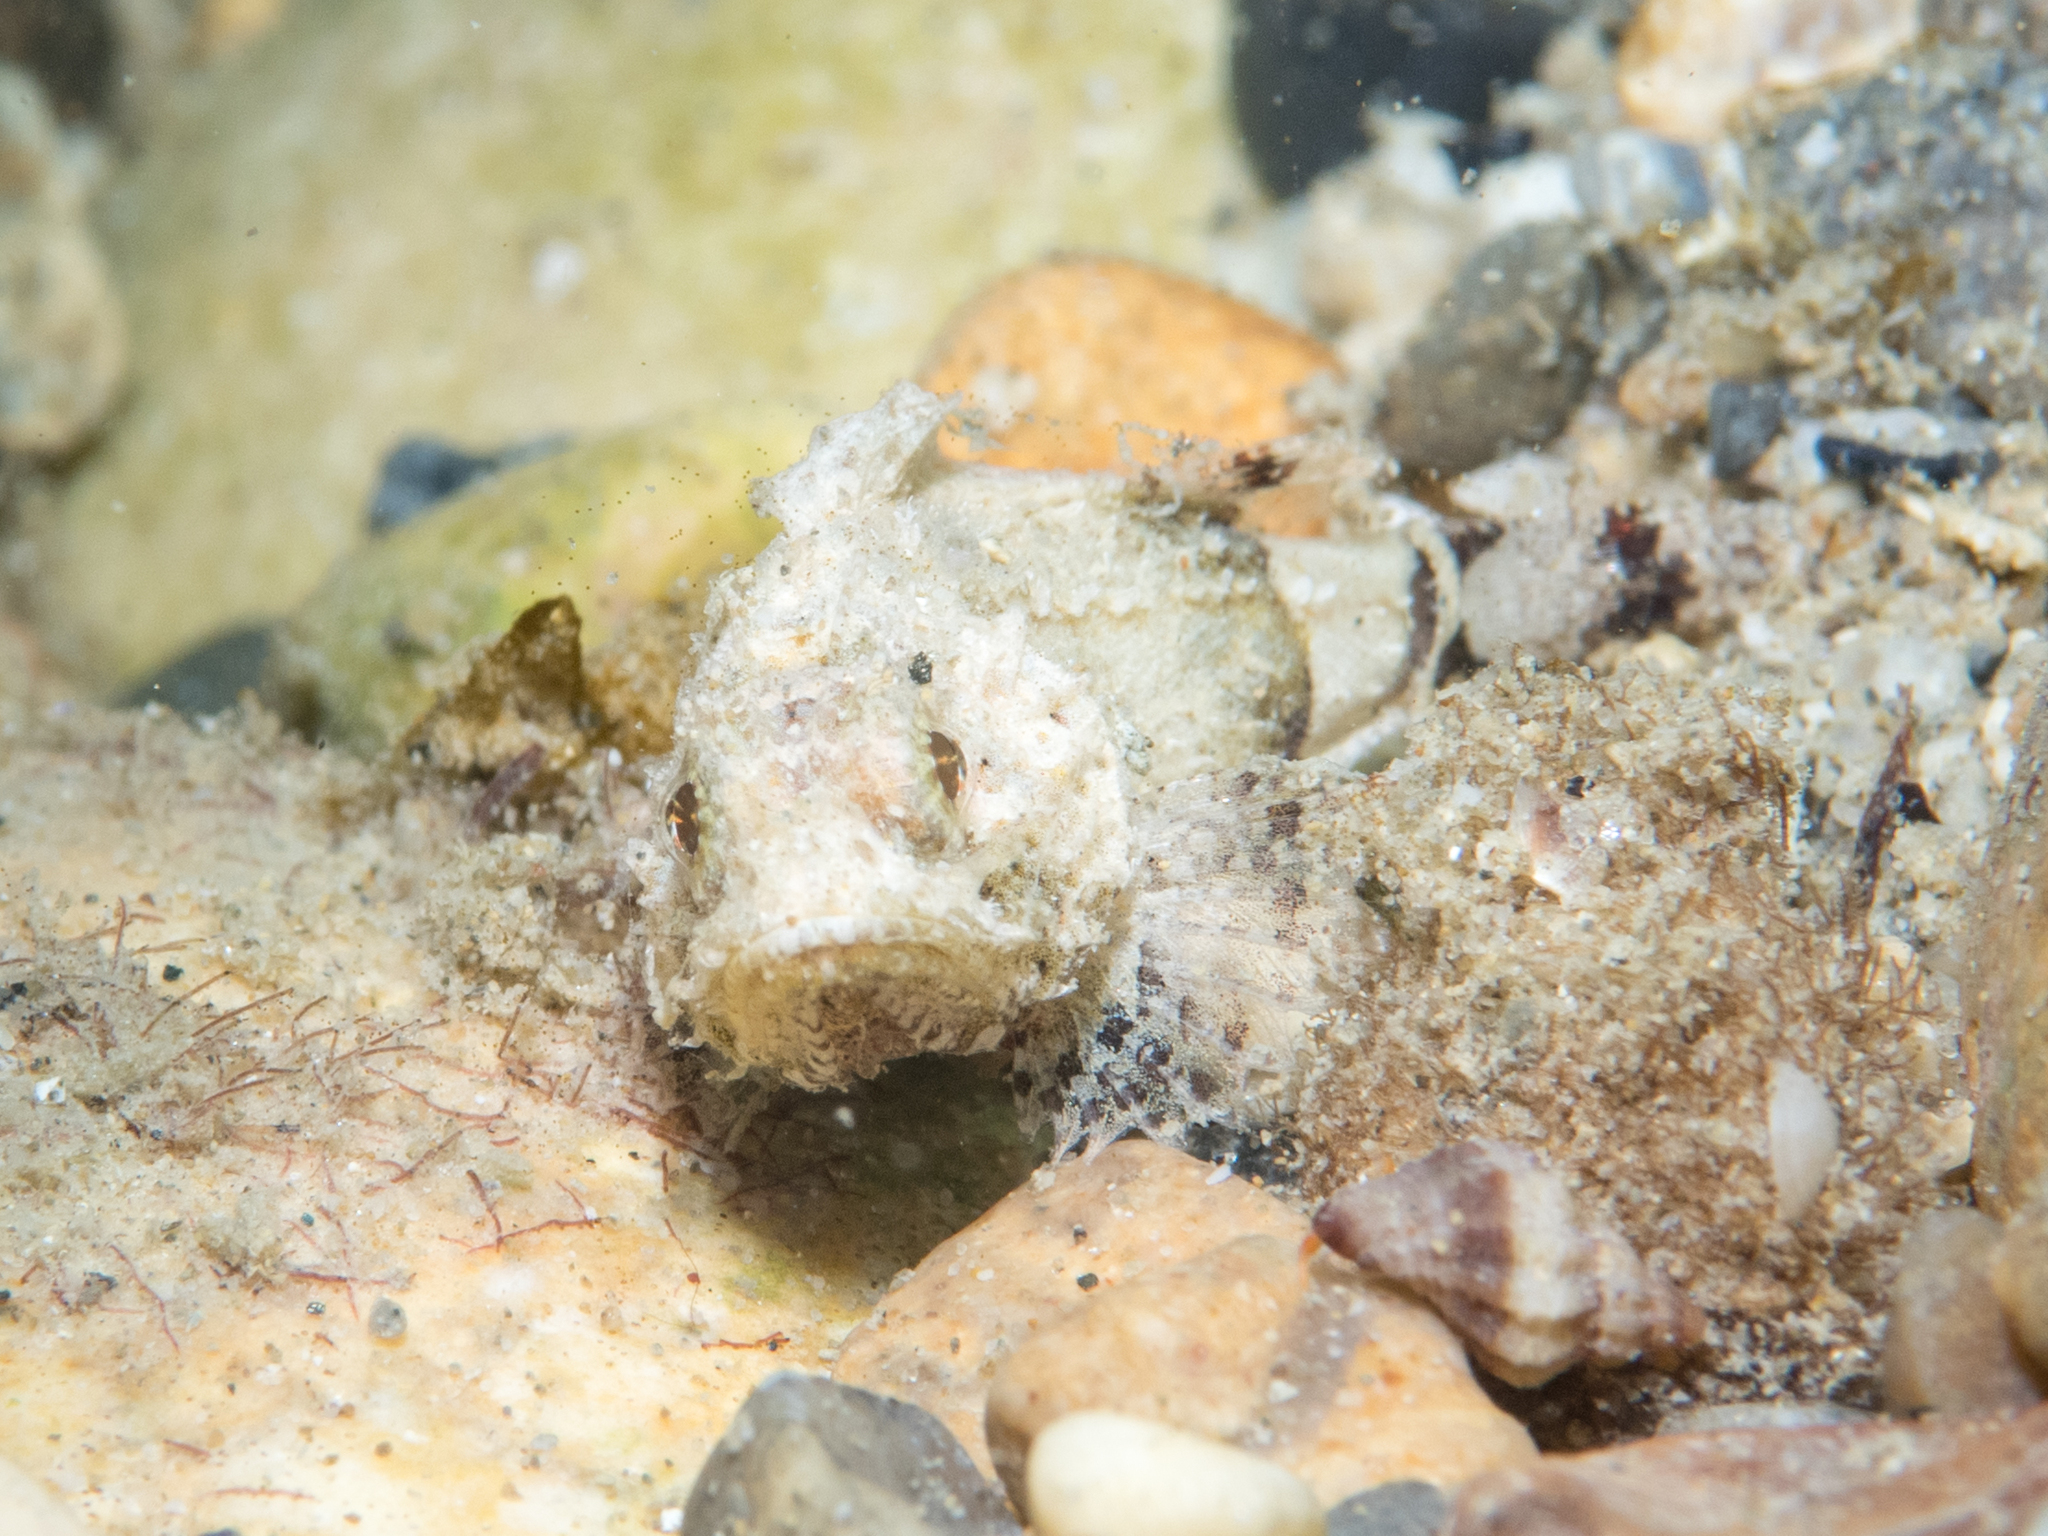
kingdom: Animalia
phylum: Chordata
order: Scorpaeniformes
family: Scorpaenidae
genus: Scorpaena
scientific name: Scorpaena porcus
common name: Black scorpionfish
